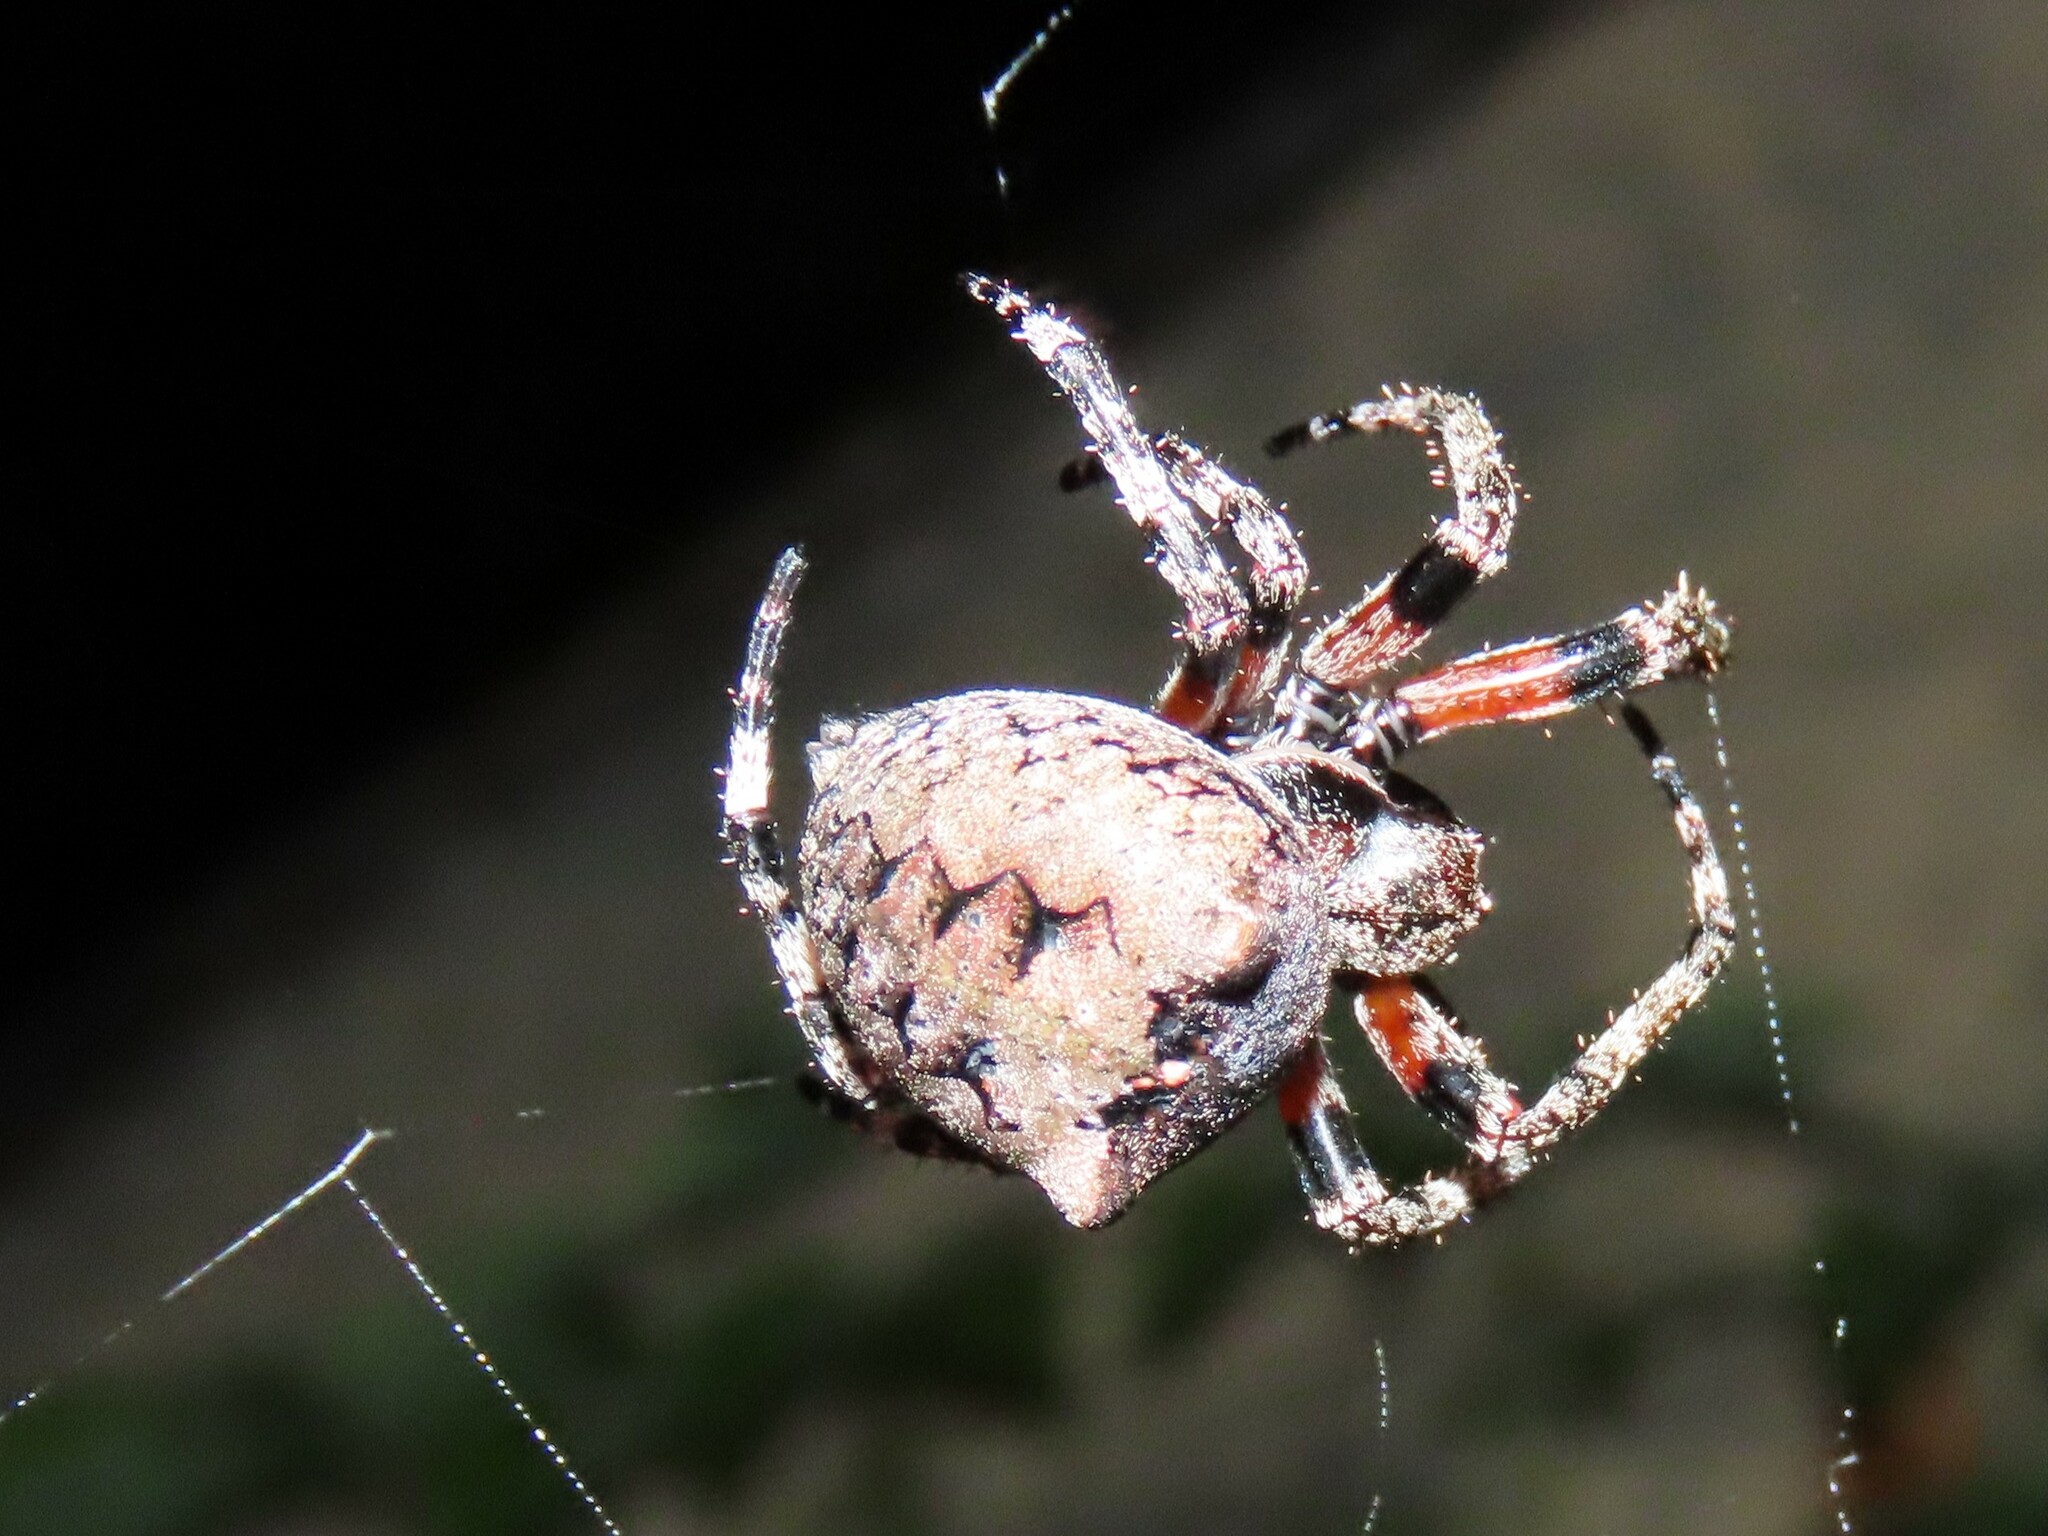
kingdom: Animalia
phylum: Arthropoda
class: Arachnida
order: Araneae
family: Araneidae
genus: Araneus
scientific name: Araneus bicentenarius
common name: Giant lichen orbweaver
